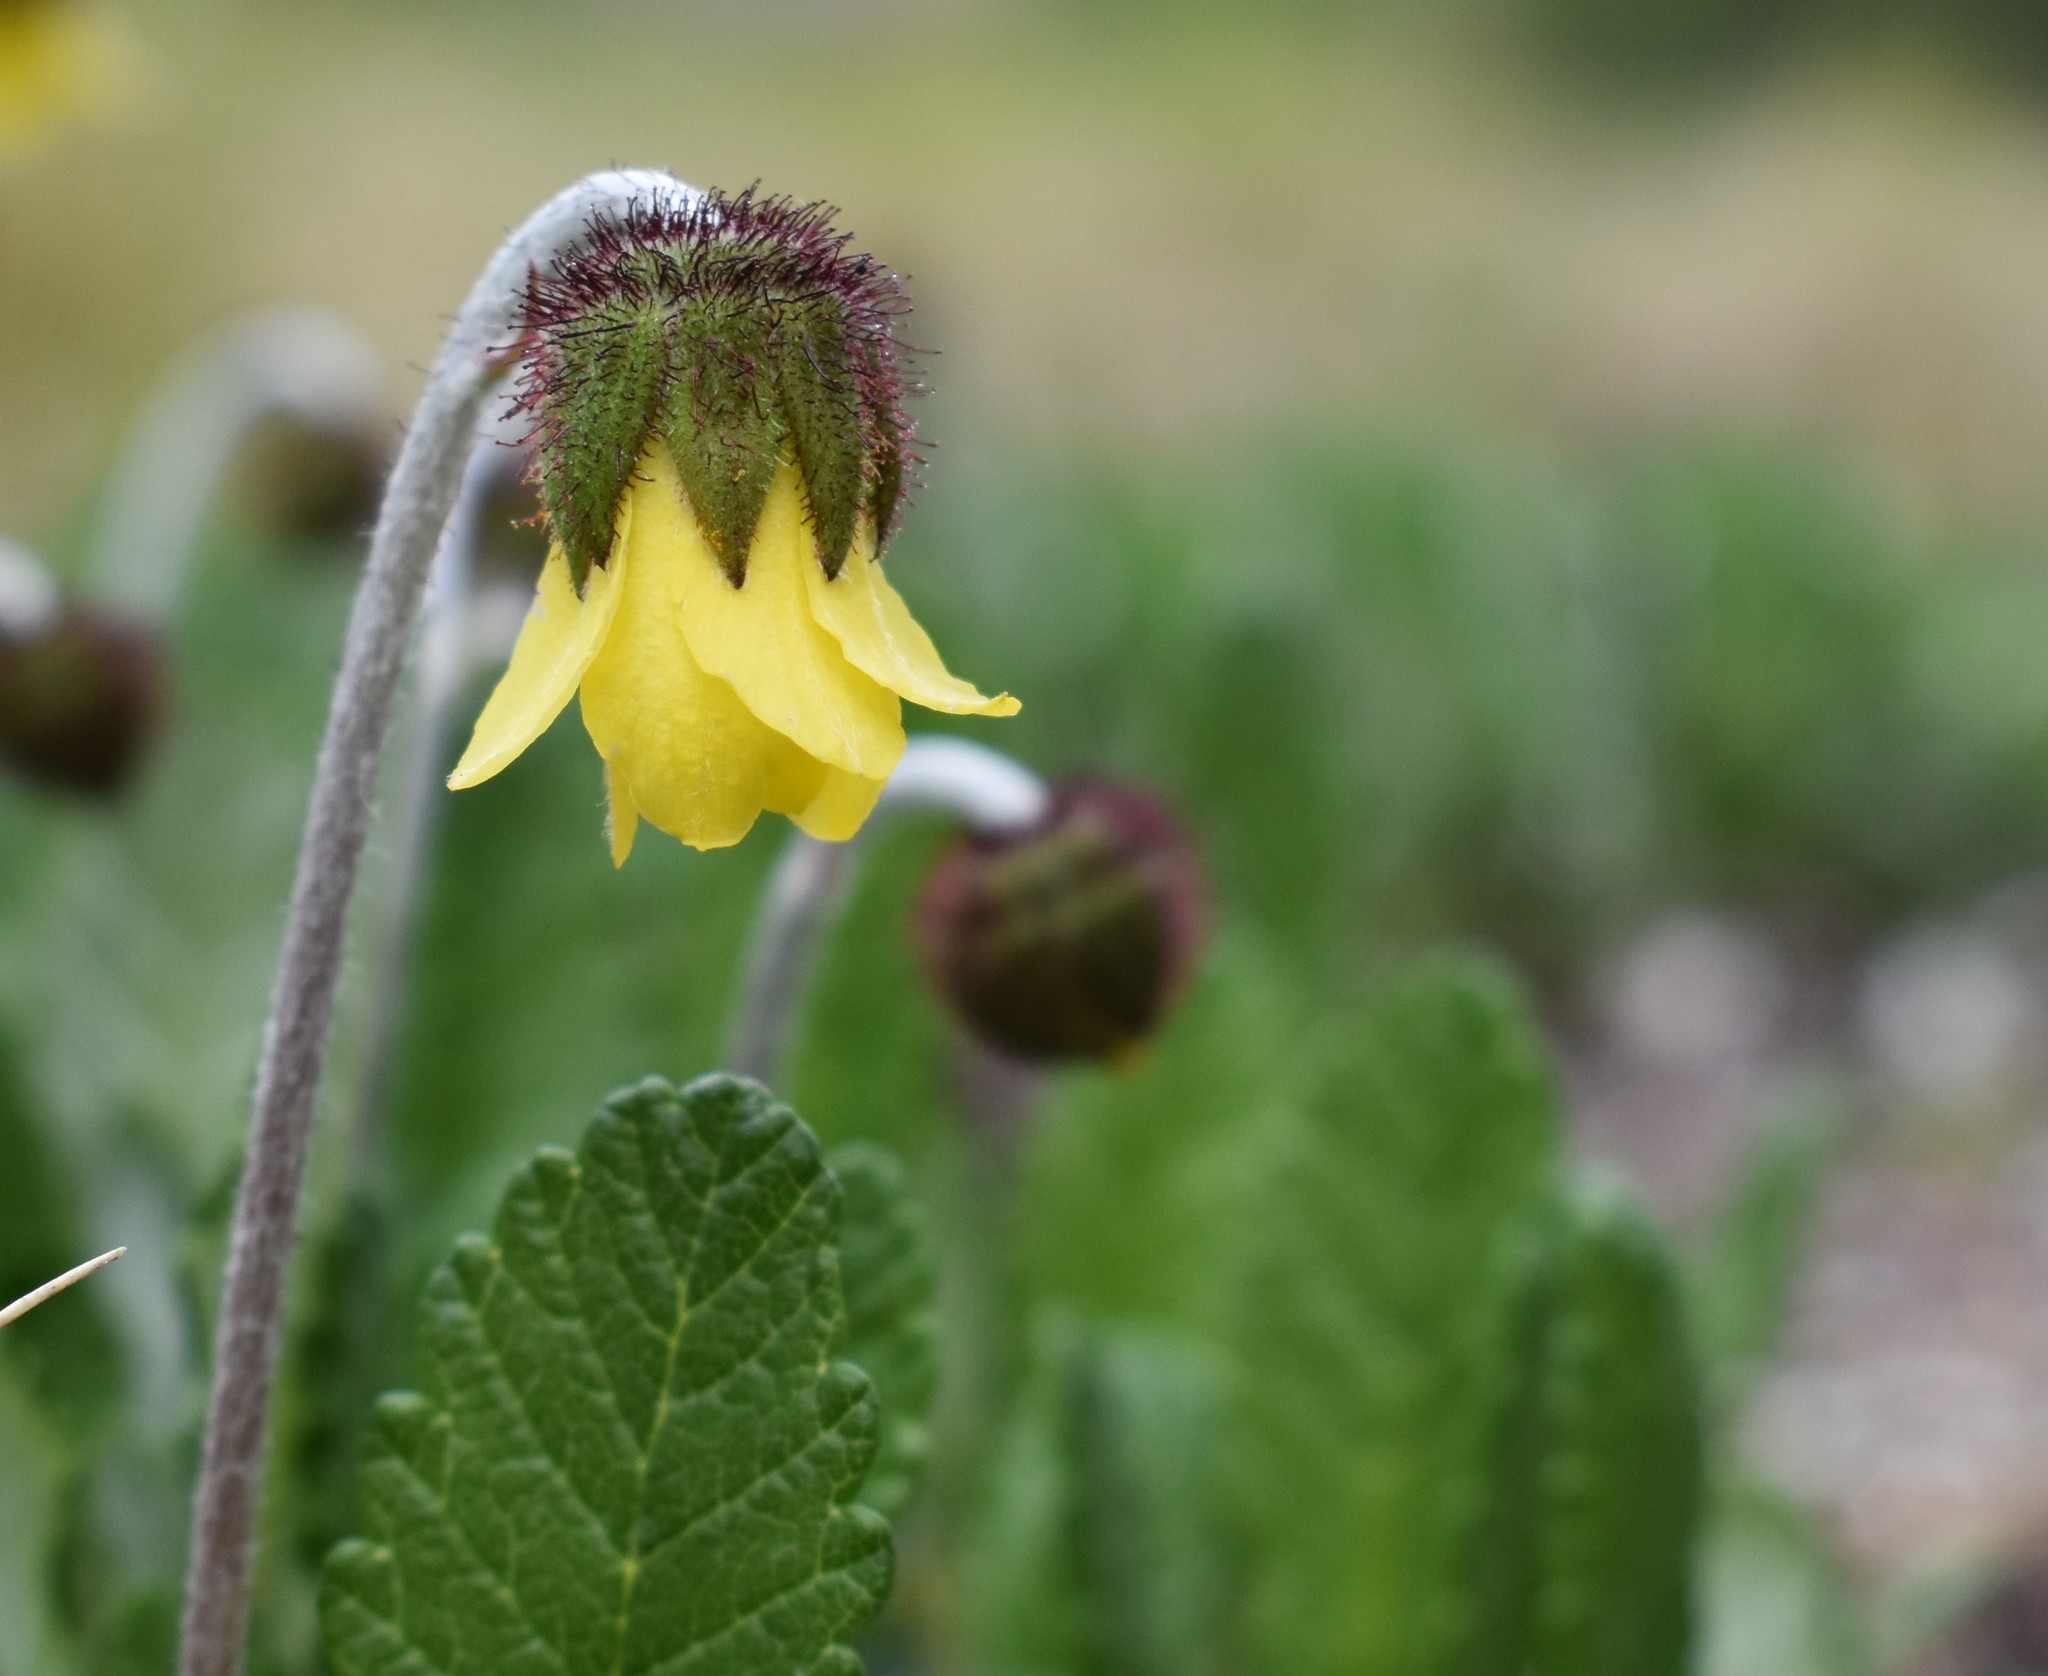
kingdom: Plantae
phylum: Tracheophyta
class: Magnoliopsida
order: Rosales
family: Rosaceae
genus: Dryas
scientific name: Dryas drummondii
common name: Drummond's dryad
